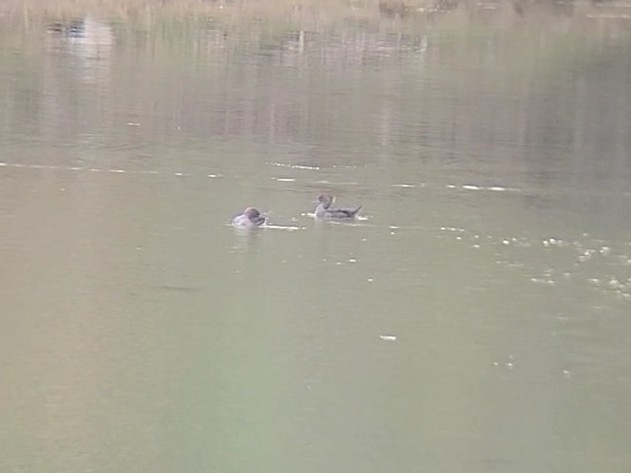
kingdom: Animalia
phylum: Chordata
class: Aves
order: Anseriformes
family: Anatidae
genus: Lophodytes
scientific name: Lophodytes cucullatus
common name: Hooded merganser
